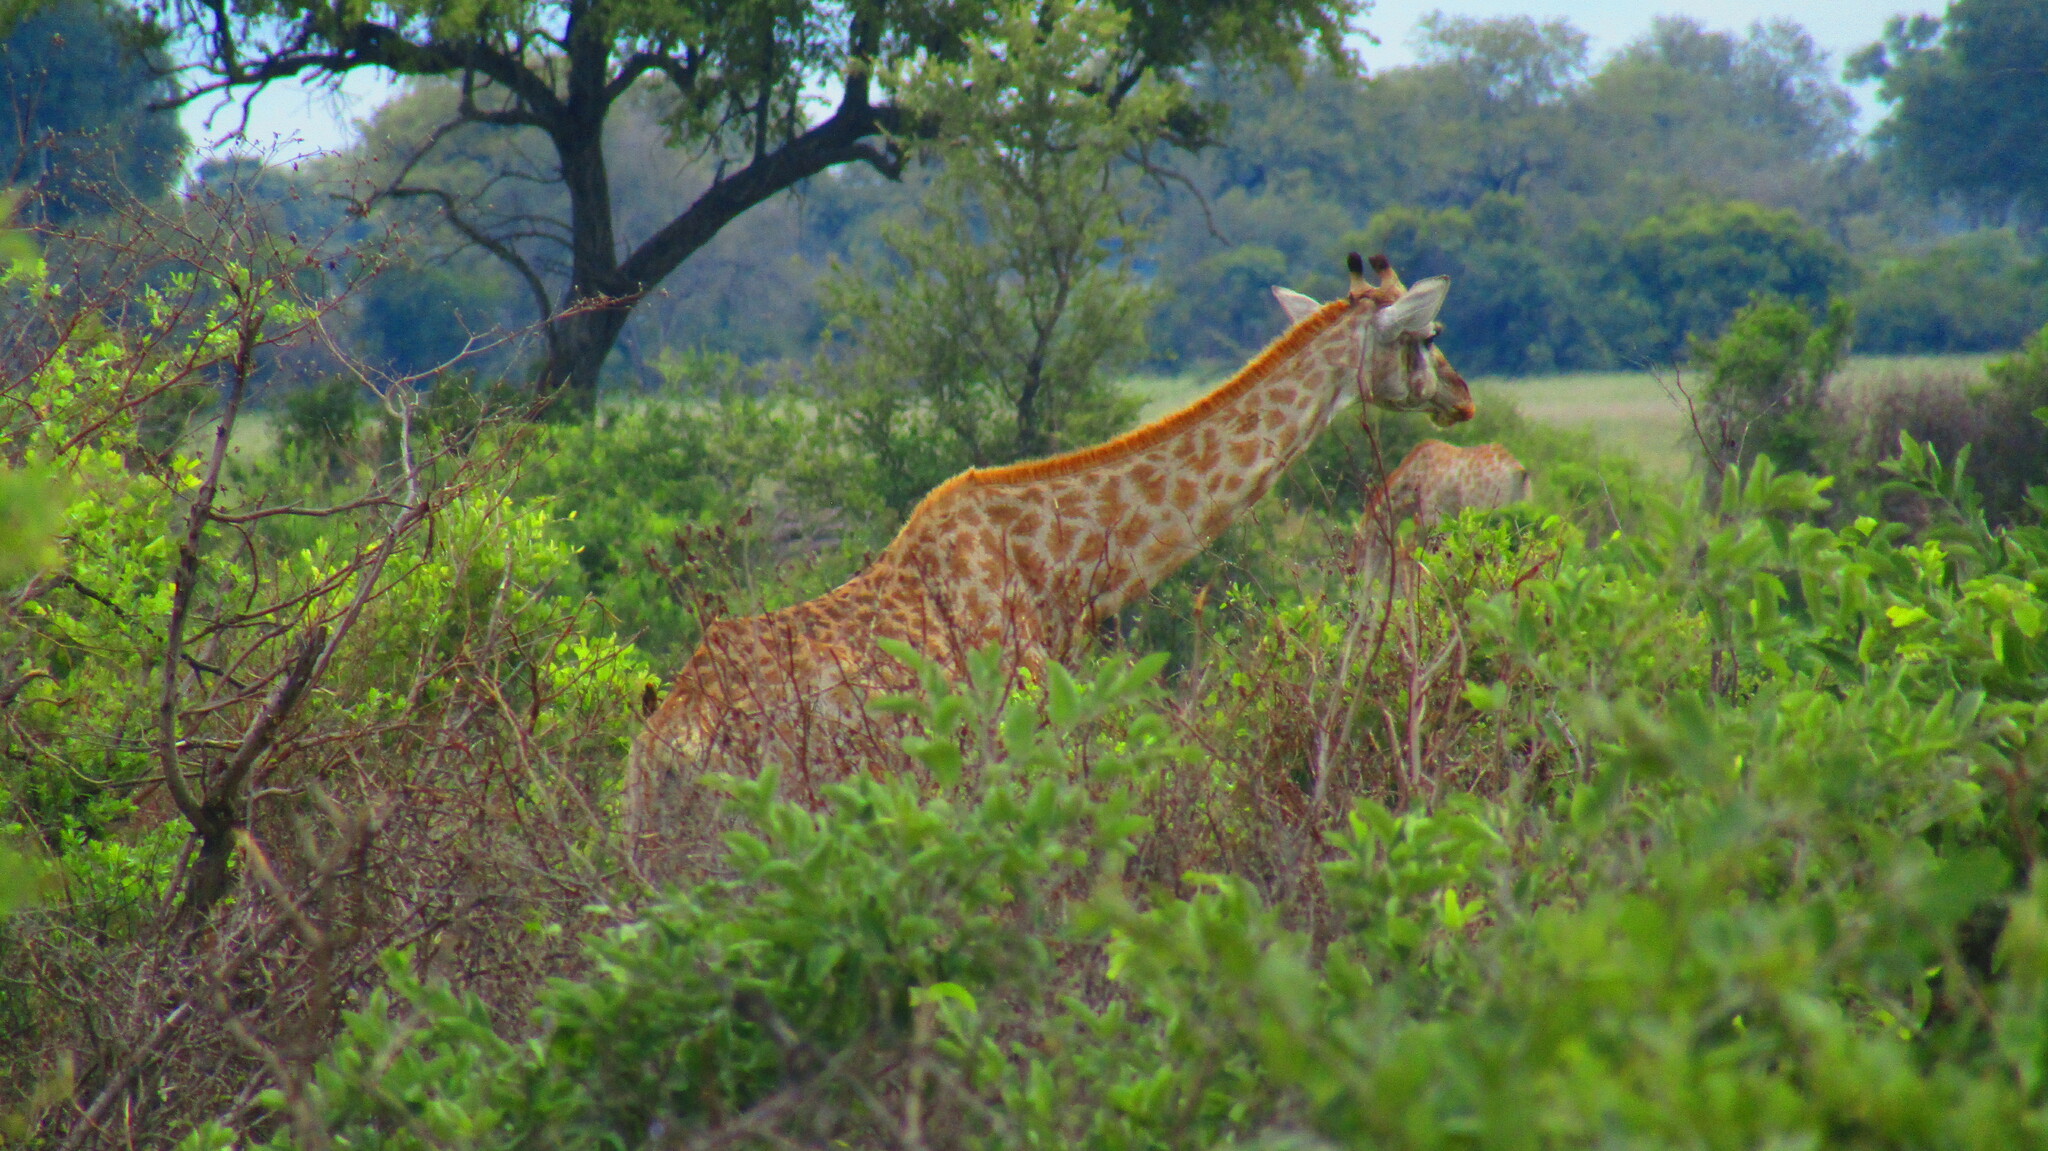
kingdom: Animalia
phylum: Chordata
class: Mammalia
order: Artiodactyla
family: Giraffidae
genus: Giraffa
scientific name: Giraffa giraffa
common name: Southern giraffe
